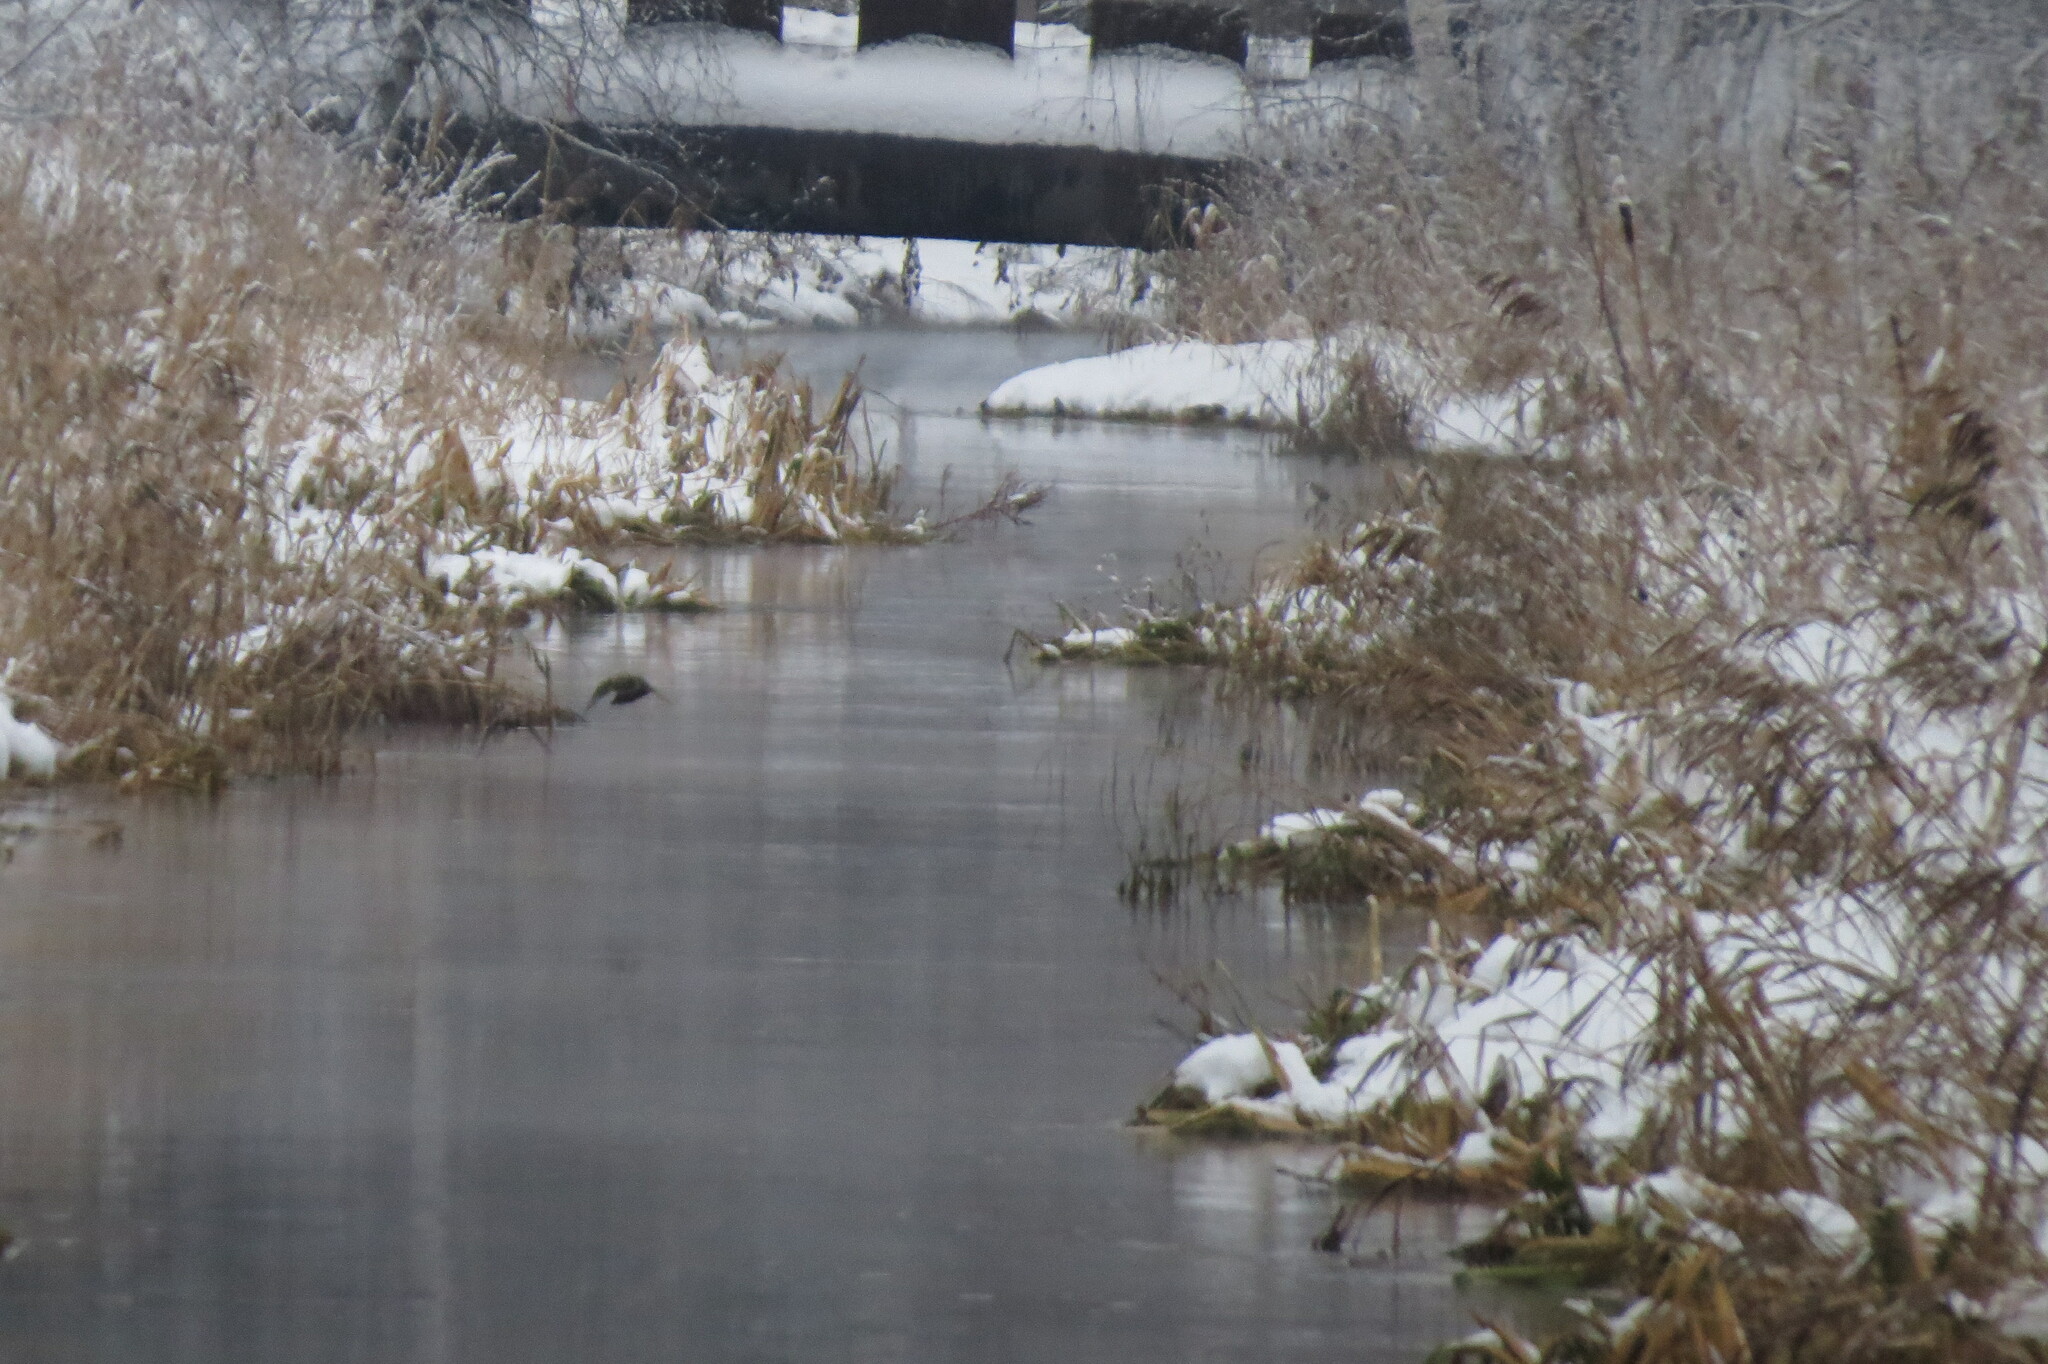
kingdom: Animalia
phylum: Chordata
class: Aves
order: Passeriformes
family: Turdidae
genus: Turdus
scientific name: Turdus pilaris
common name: Fieldfare
